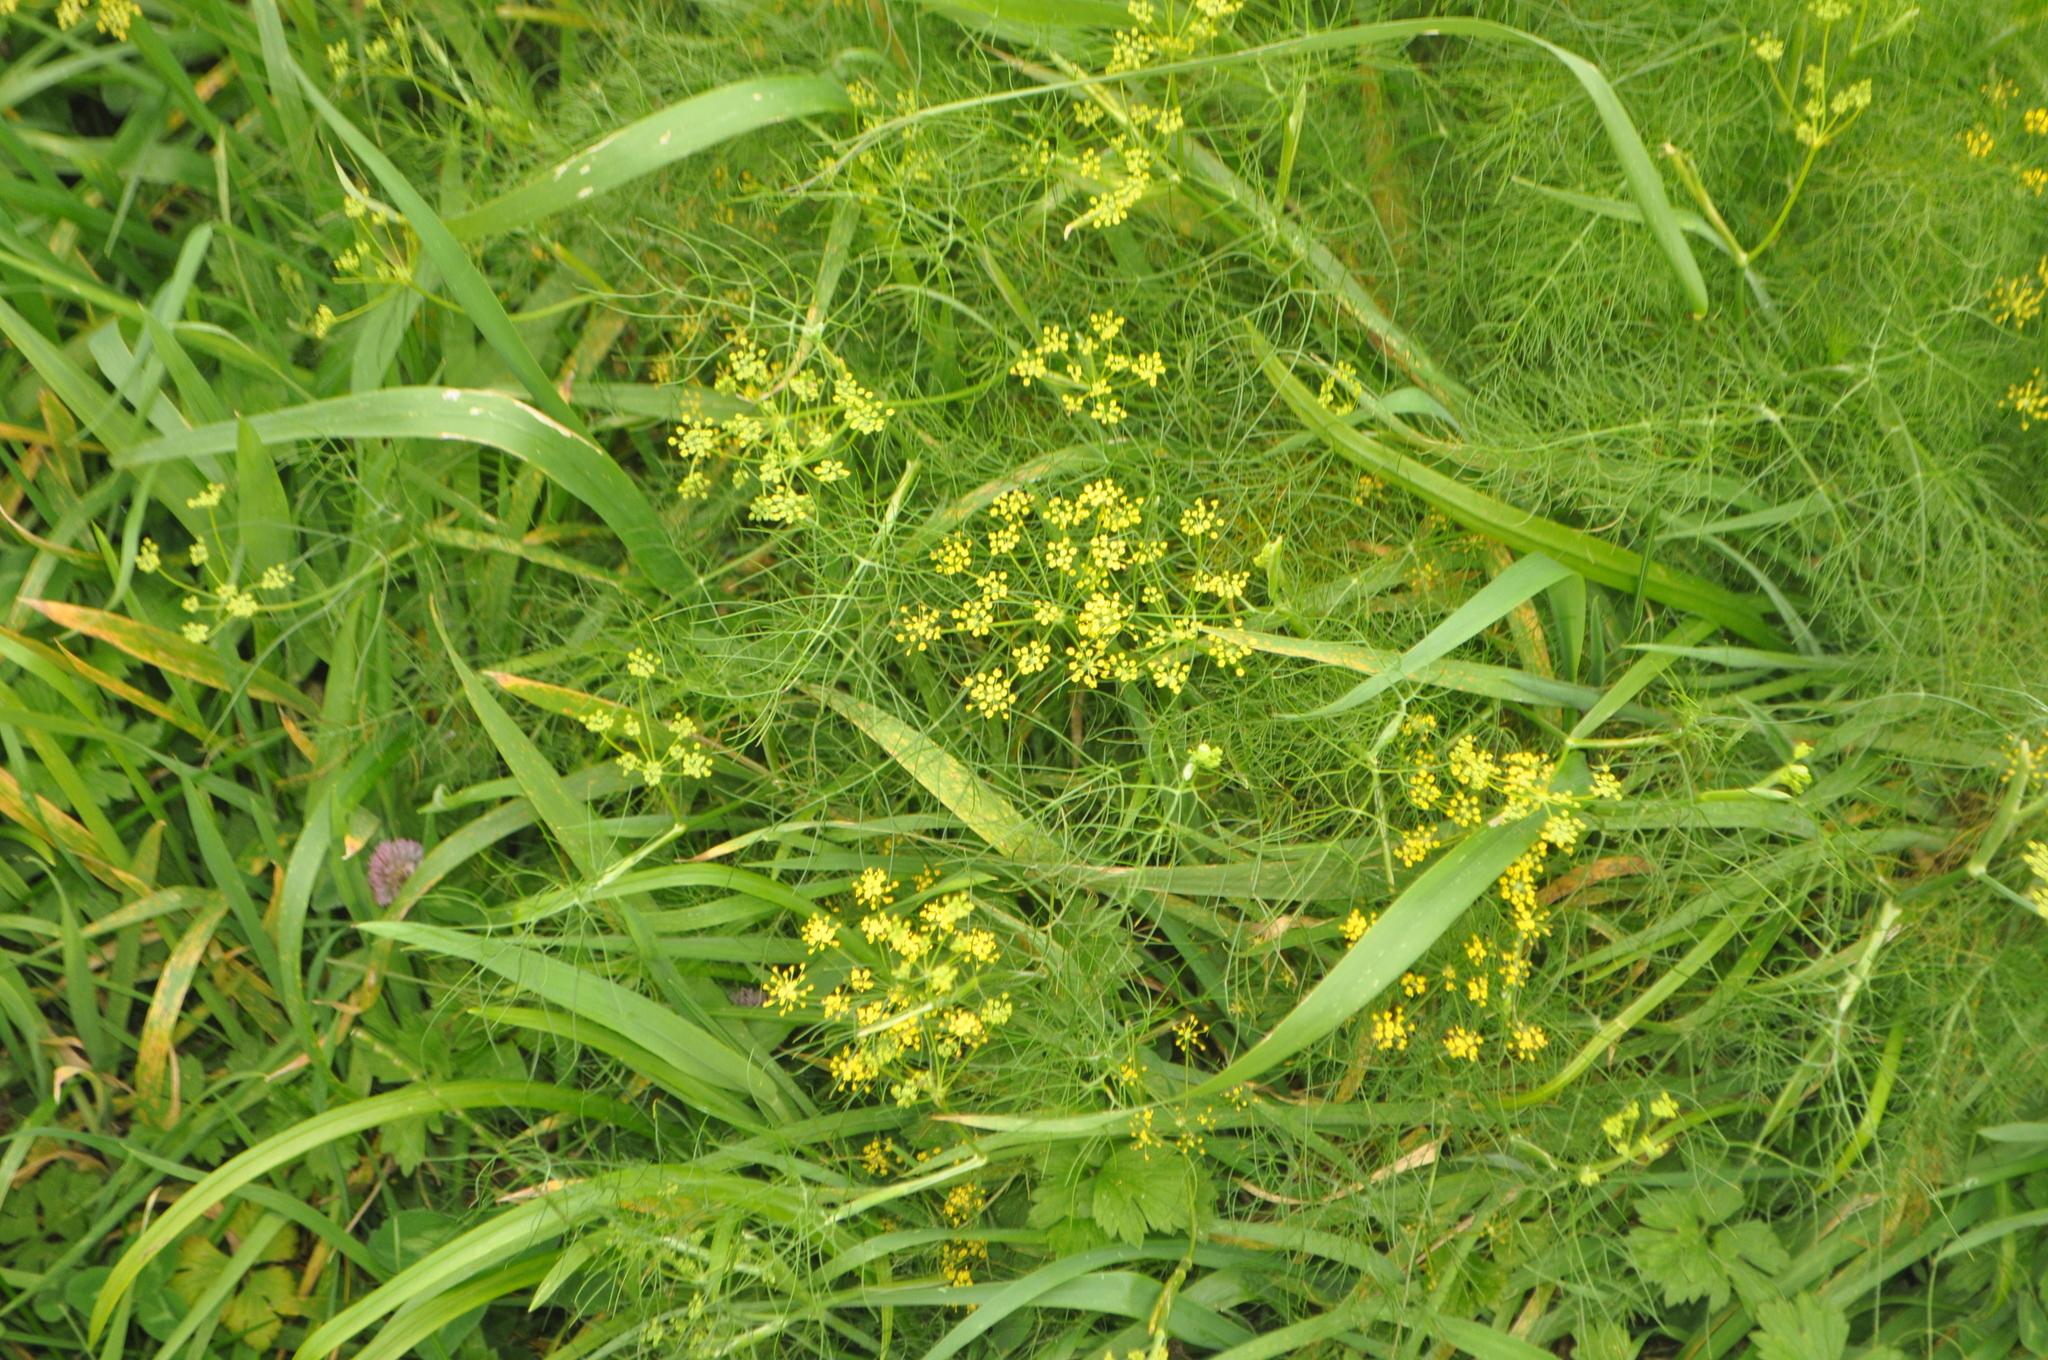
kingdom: Plantae
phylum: Tracheophyta
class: Magnoliopsida
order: Apiales
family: Apiaceae
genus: Foeniculum
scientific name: Foeniculum vulgare
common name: Fennel
